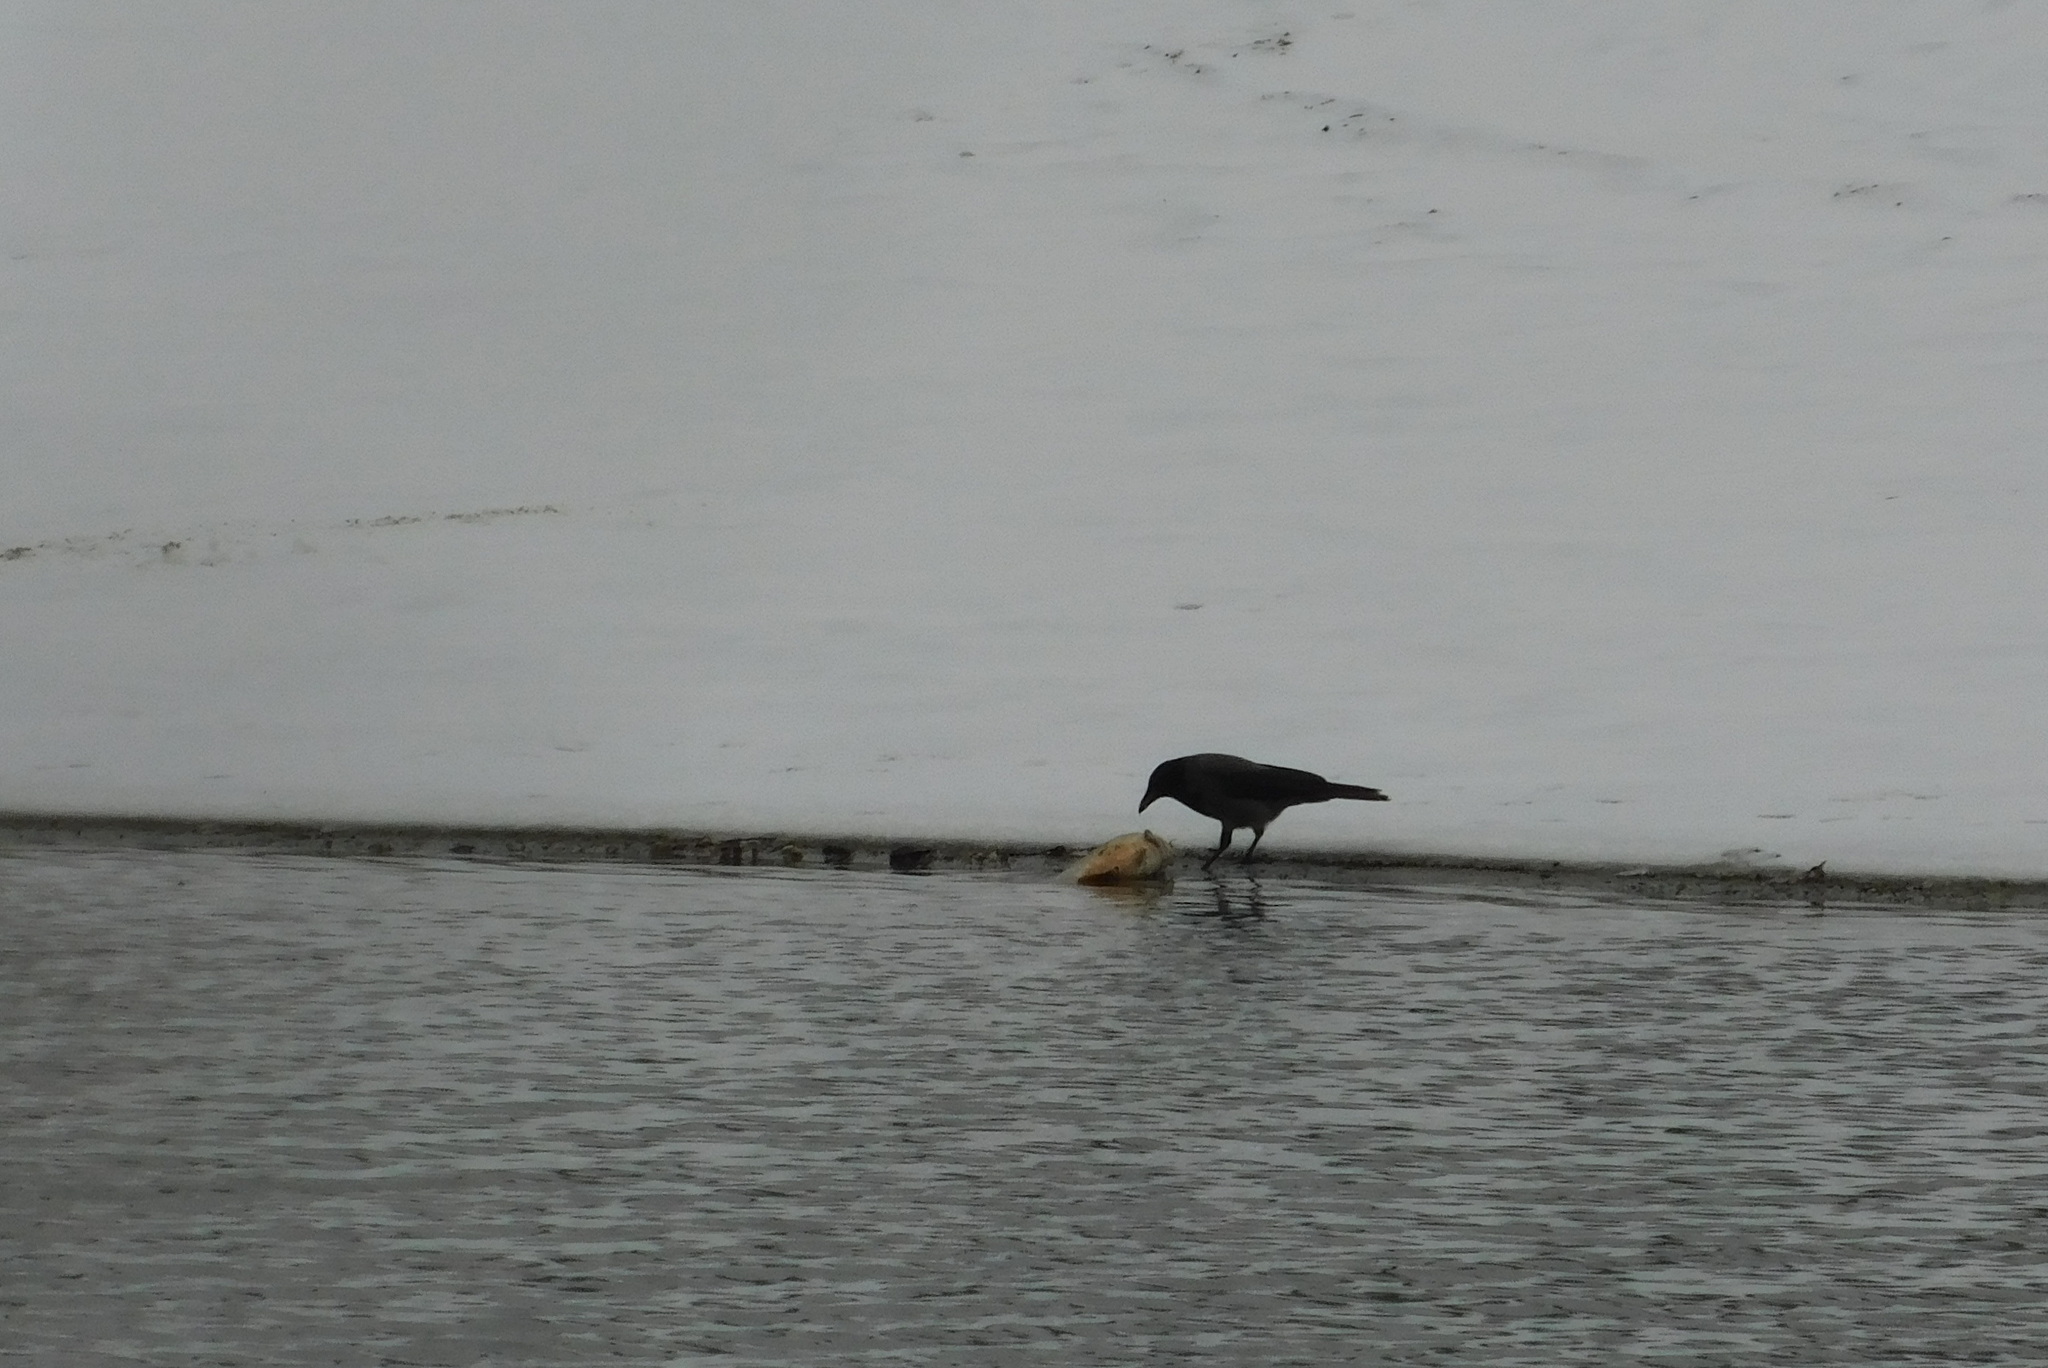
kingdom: Animalia
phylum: Chordata
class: Aves
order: Passeriformes
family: Corvidae
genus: Corvus
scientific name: Corvus cornix
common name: Hooded crow
